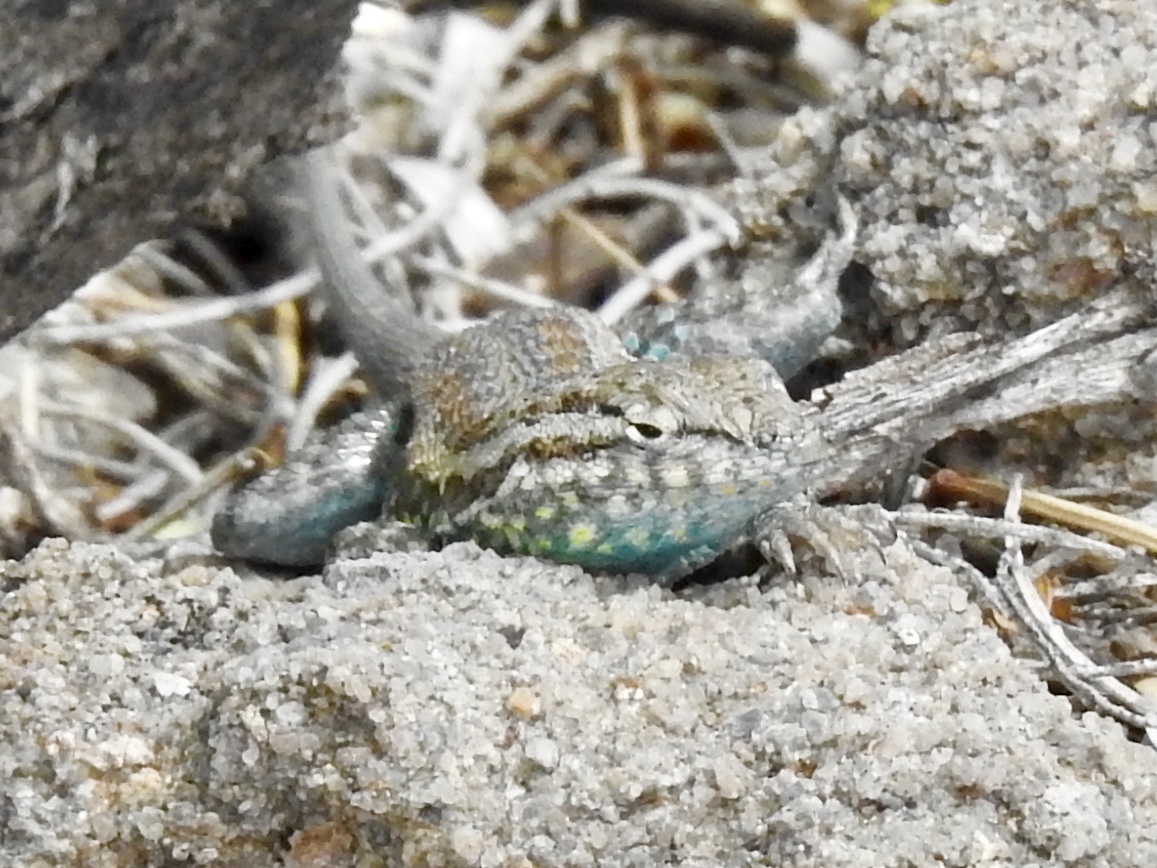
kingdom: Animalia
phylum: Chordata
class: Squamata
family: Phrynosomatidae
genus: Uta
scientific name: Uta stansburiana
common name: Side-blotched lizard
